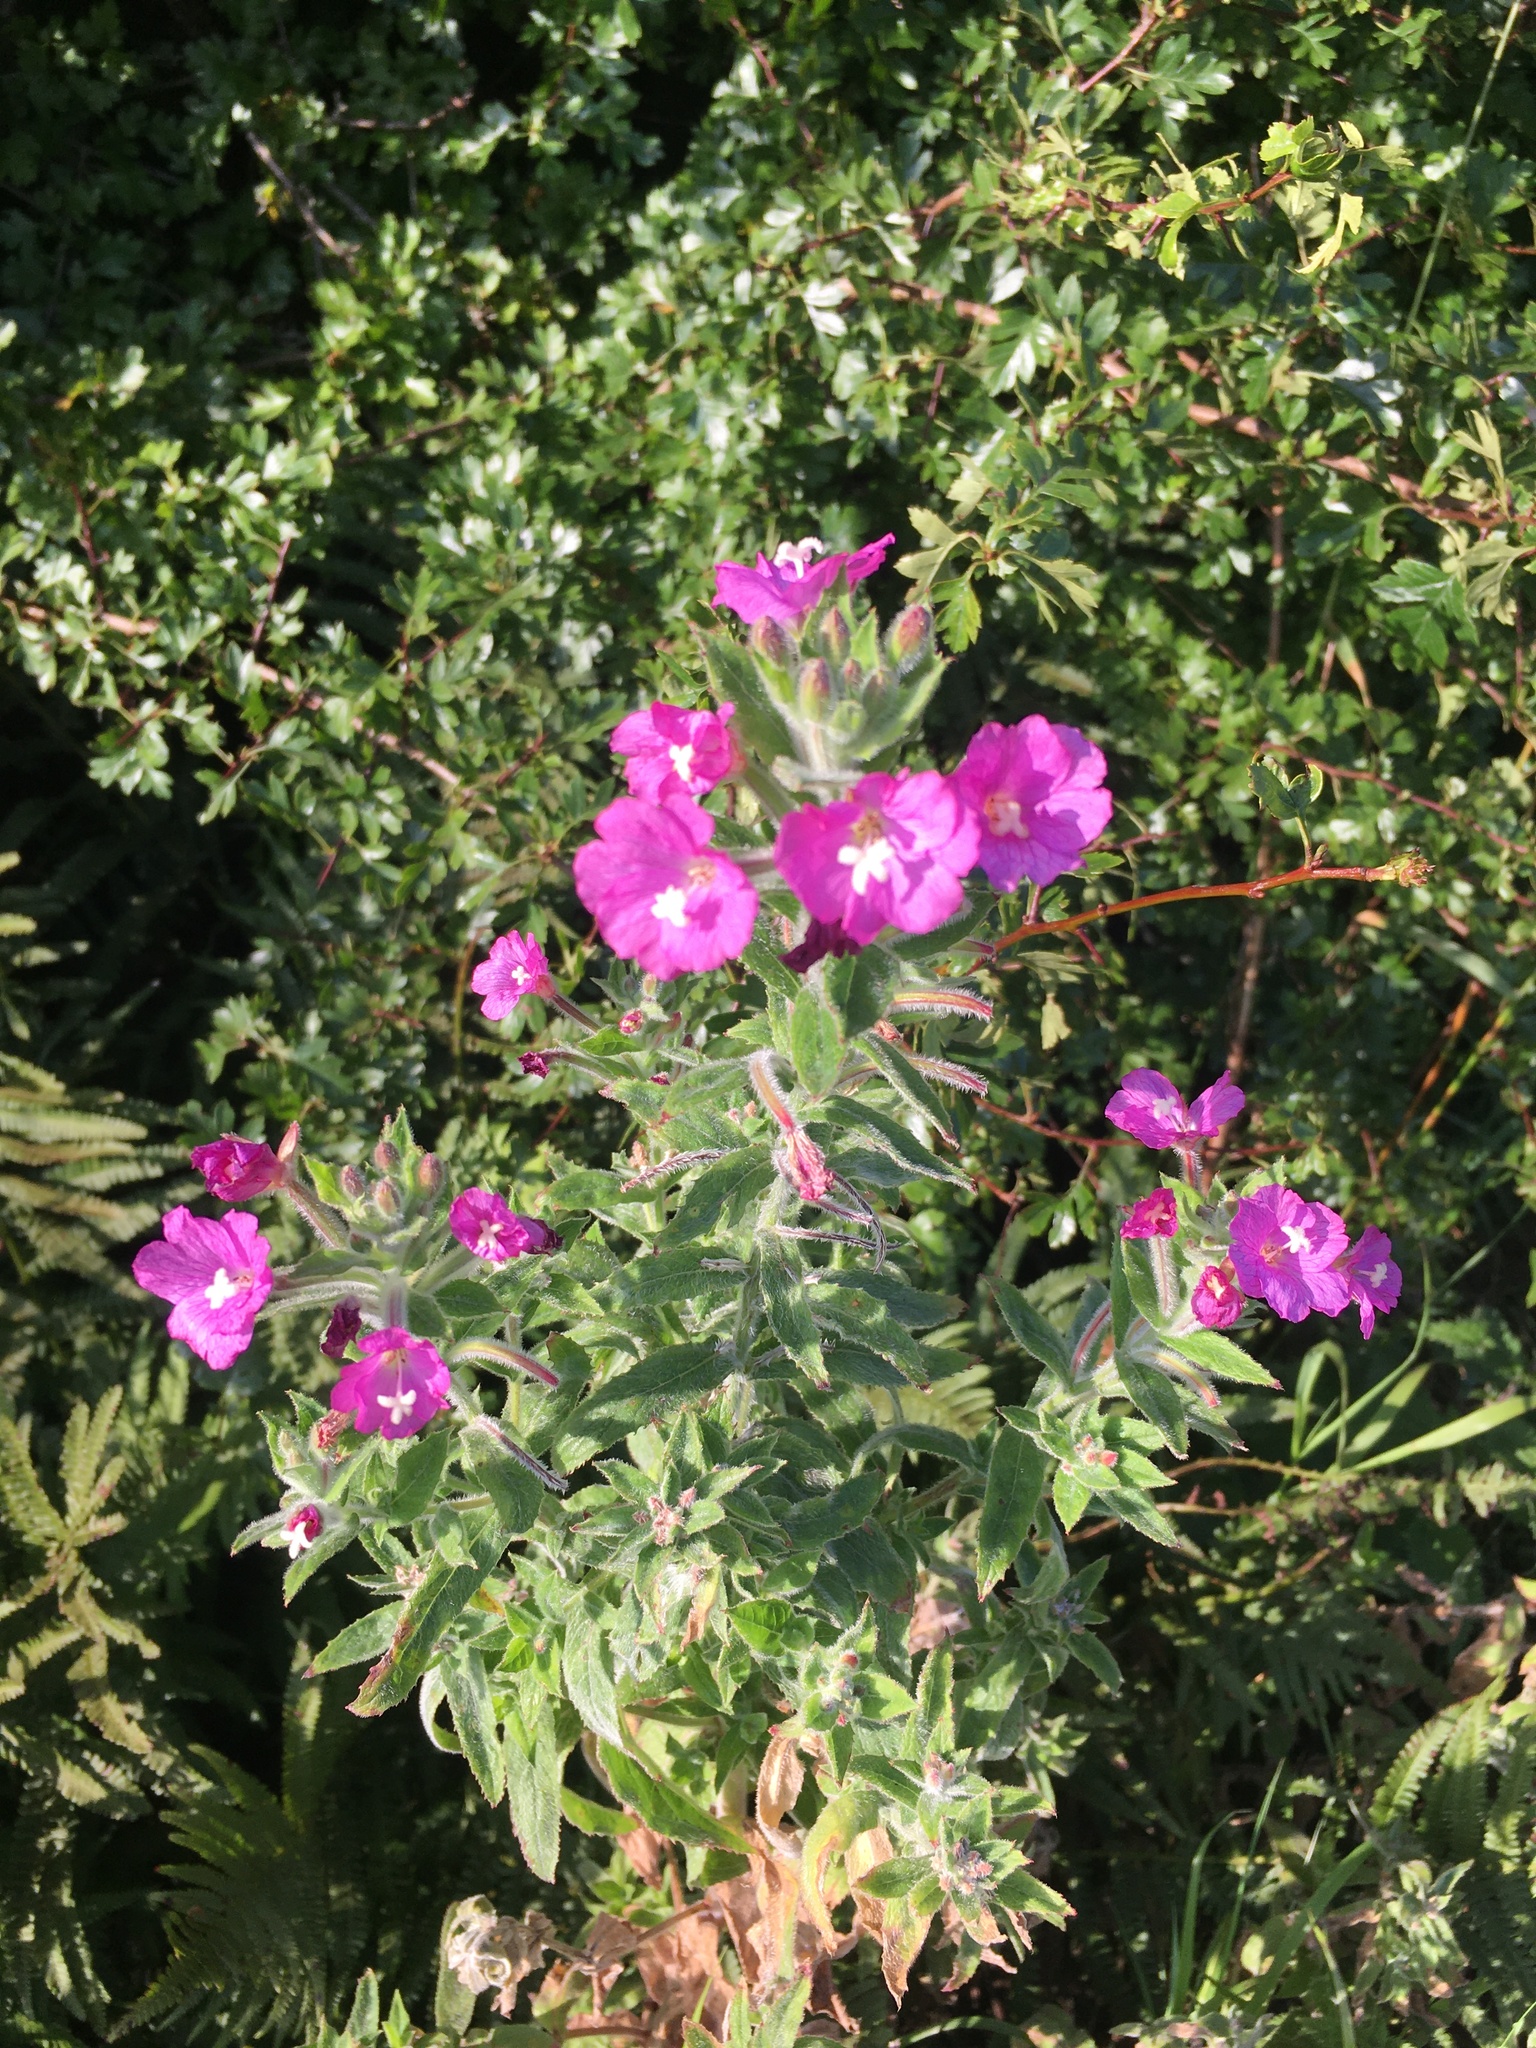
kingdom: Plantae
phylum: Tracheophyta
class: Magnoliopsida
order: Myrtales
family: Onagraceae
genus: Epilobium
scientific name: Epilobium hirsutum
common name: Great willowherb
